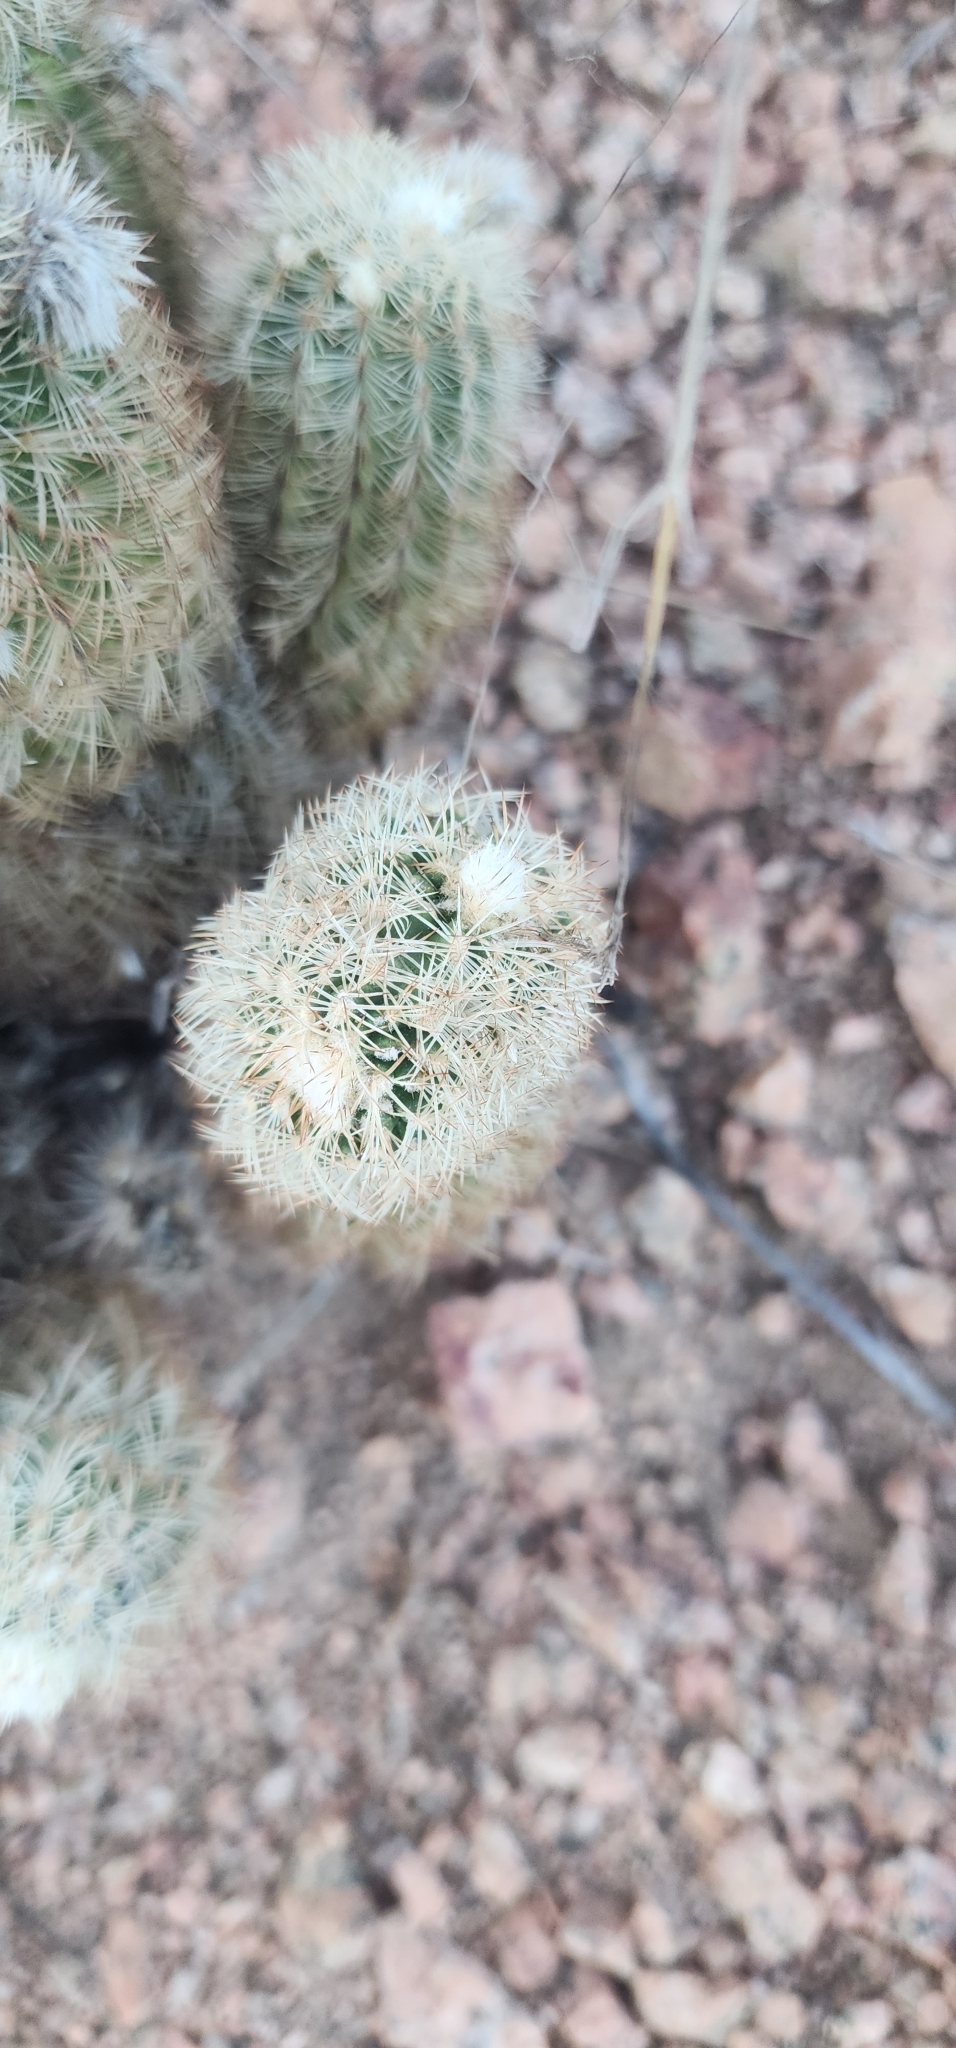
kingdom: Plantae
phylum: Tracheophyta
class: Magnoliopsida
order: Caryophyllales
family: Cactaceae
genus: Echinocereus
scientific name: Echinocereus reichenbachii
